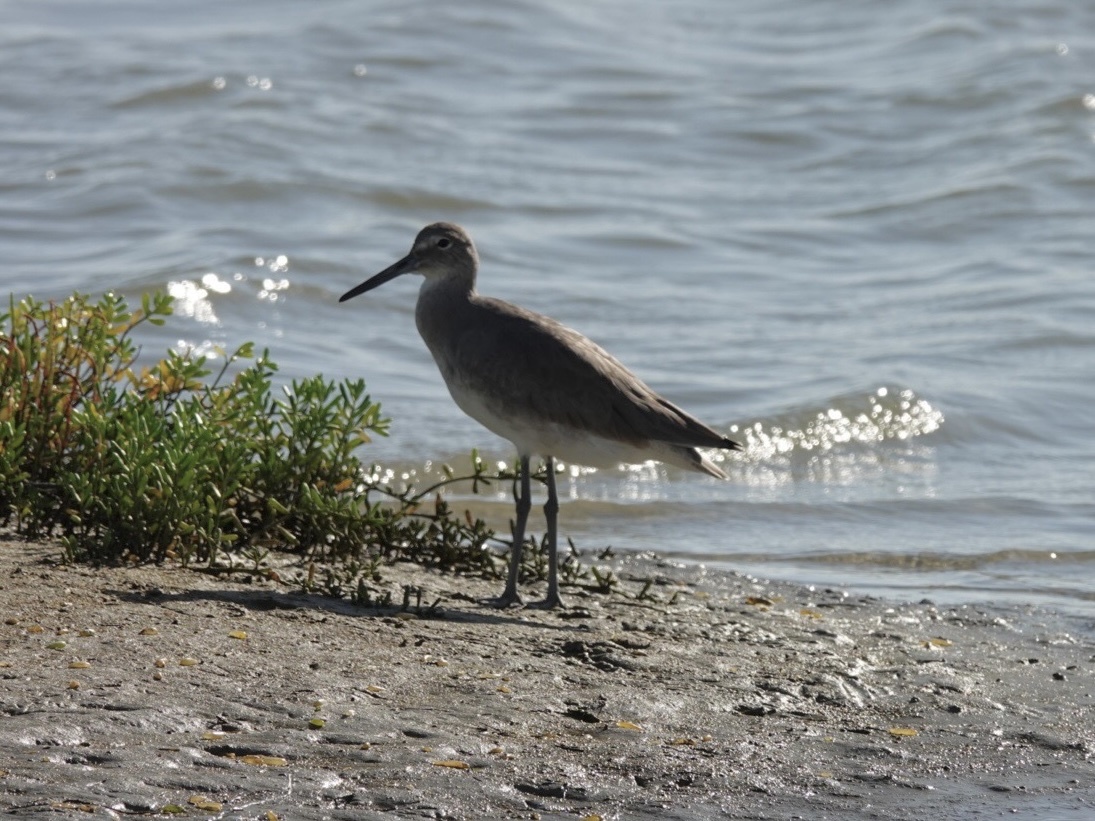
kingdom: Animalia
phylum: Chordata
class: Aves
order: Charadriiformes
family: Scolopacidae
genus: Tringa
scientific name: Tringa semipalmata
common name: Willet
